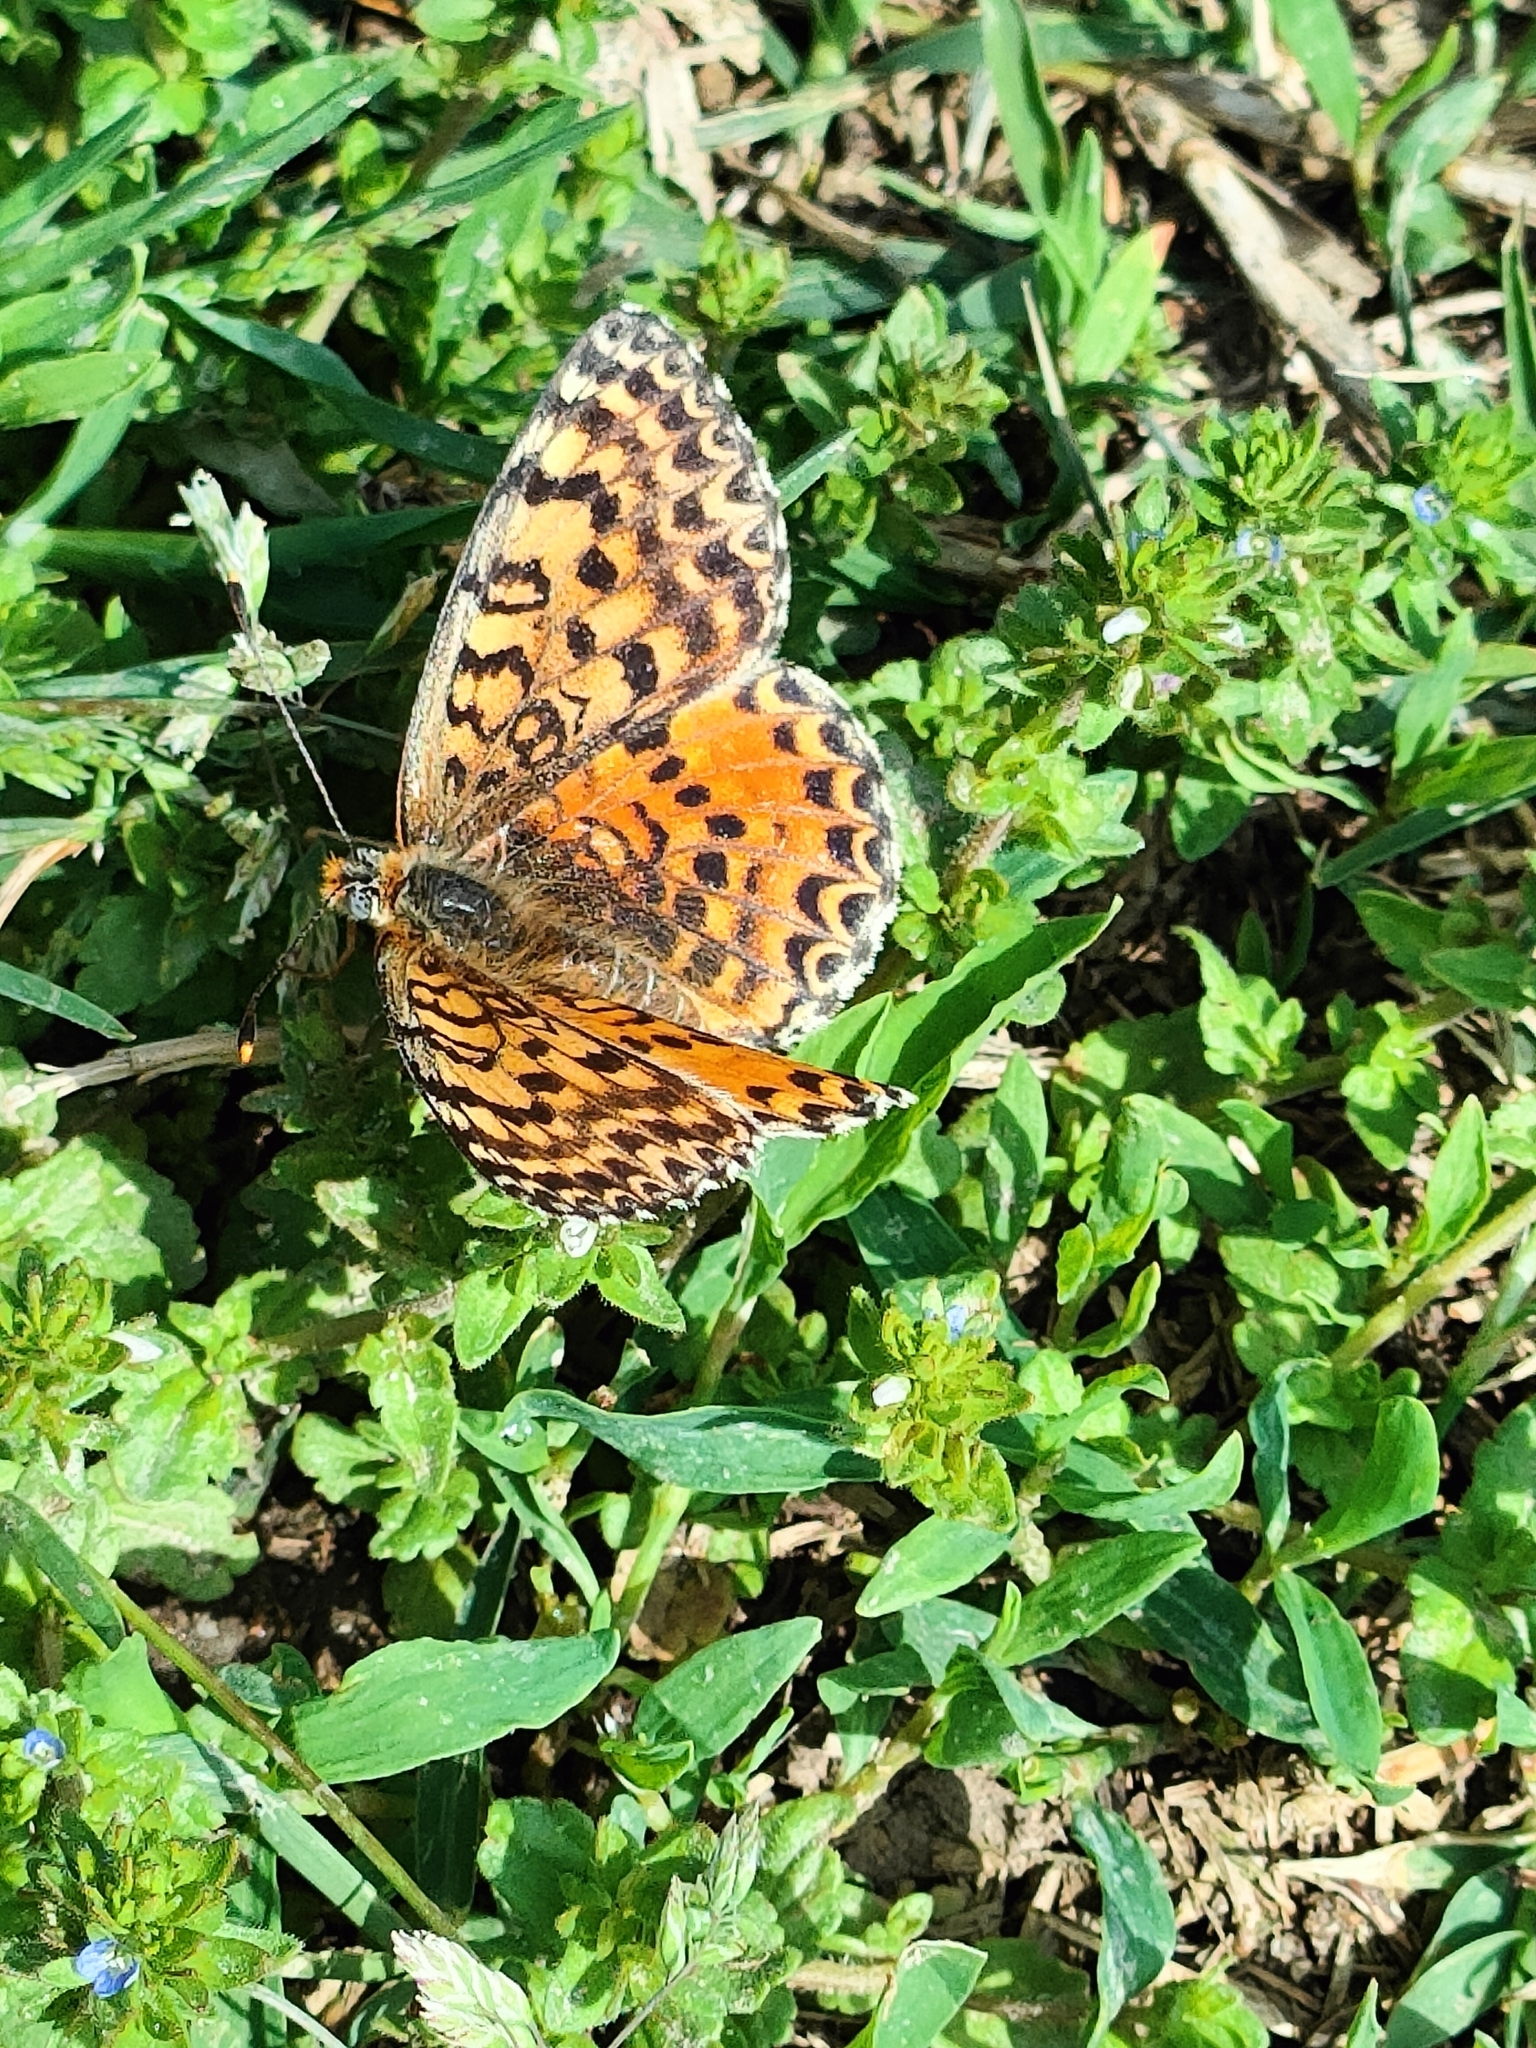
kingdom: Animalia
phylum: Arthropoda
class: Insecta
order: Lepidoptera
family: Nymphalidae
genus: Melitaea
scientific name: Melitaea didyma
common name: Spotted fritillary
